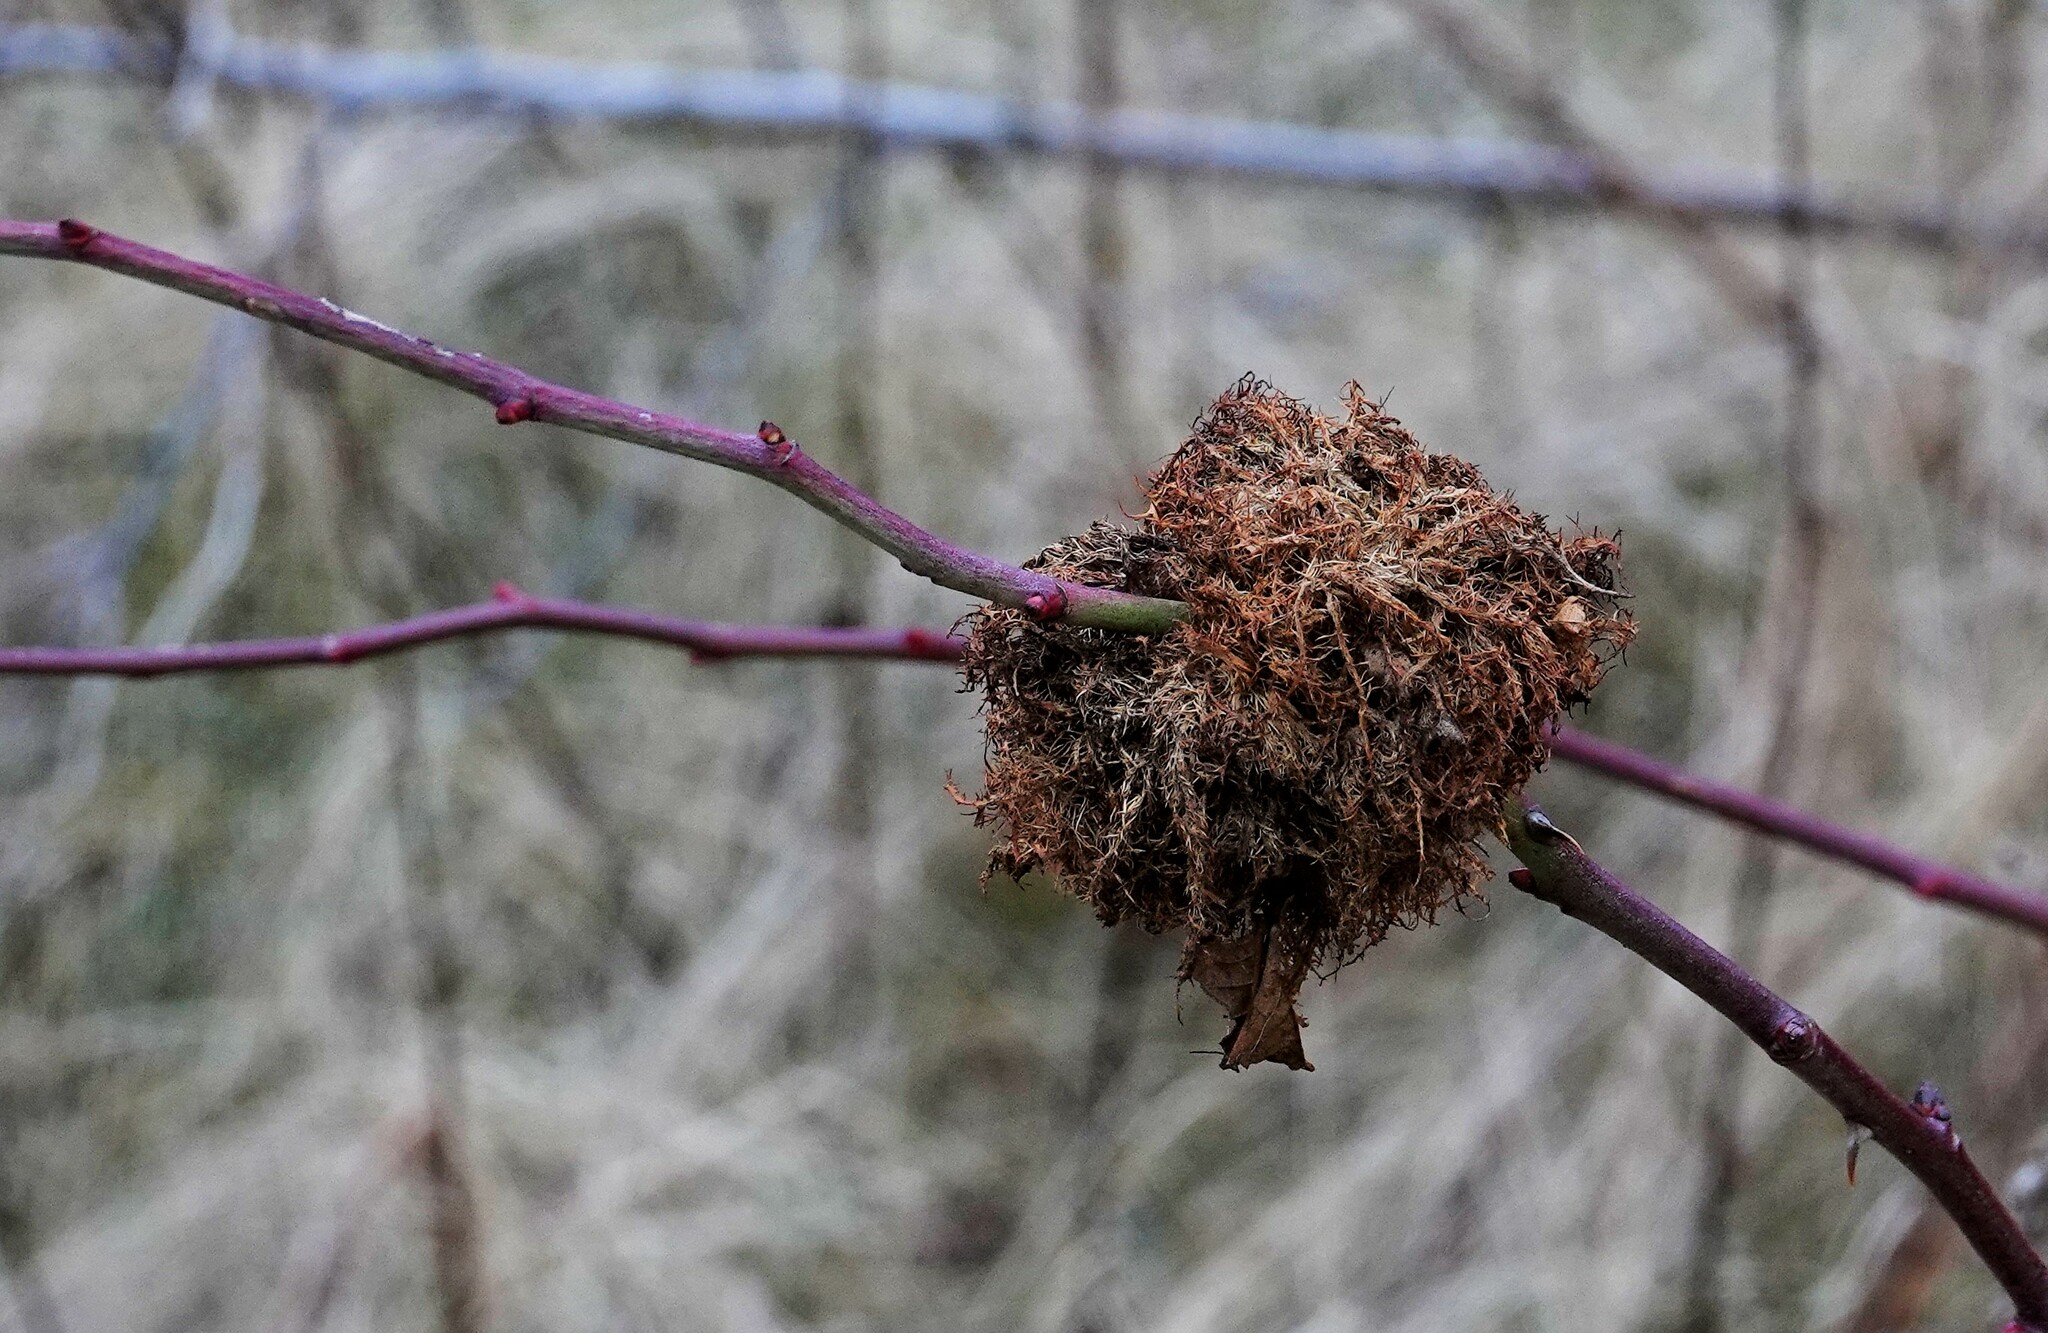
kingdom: Animalia
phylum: Arthropoda
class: Insecta
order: Hymenoptera
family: Cynipidae
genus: Diplolepis
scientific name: Diplolepis rosae
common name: Bedeguar gall
